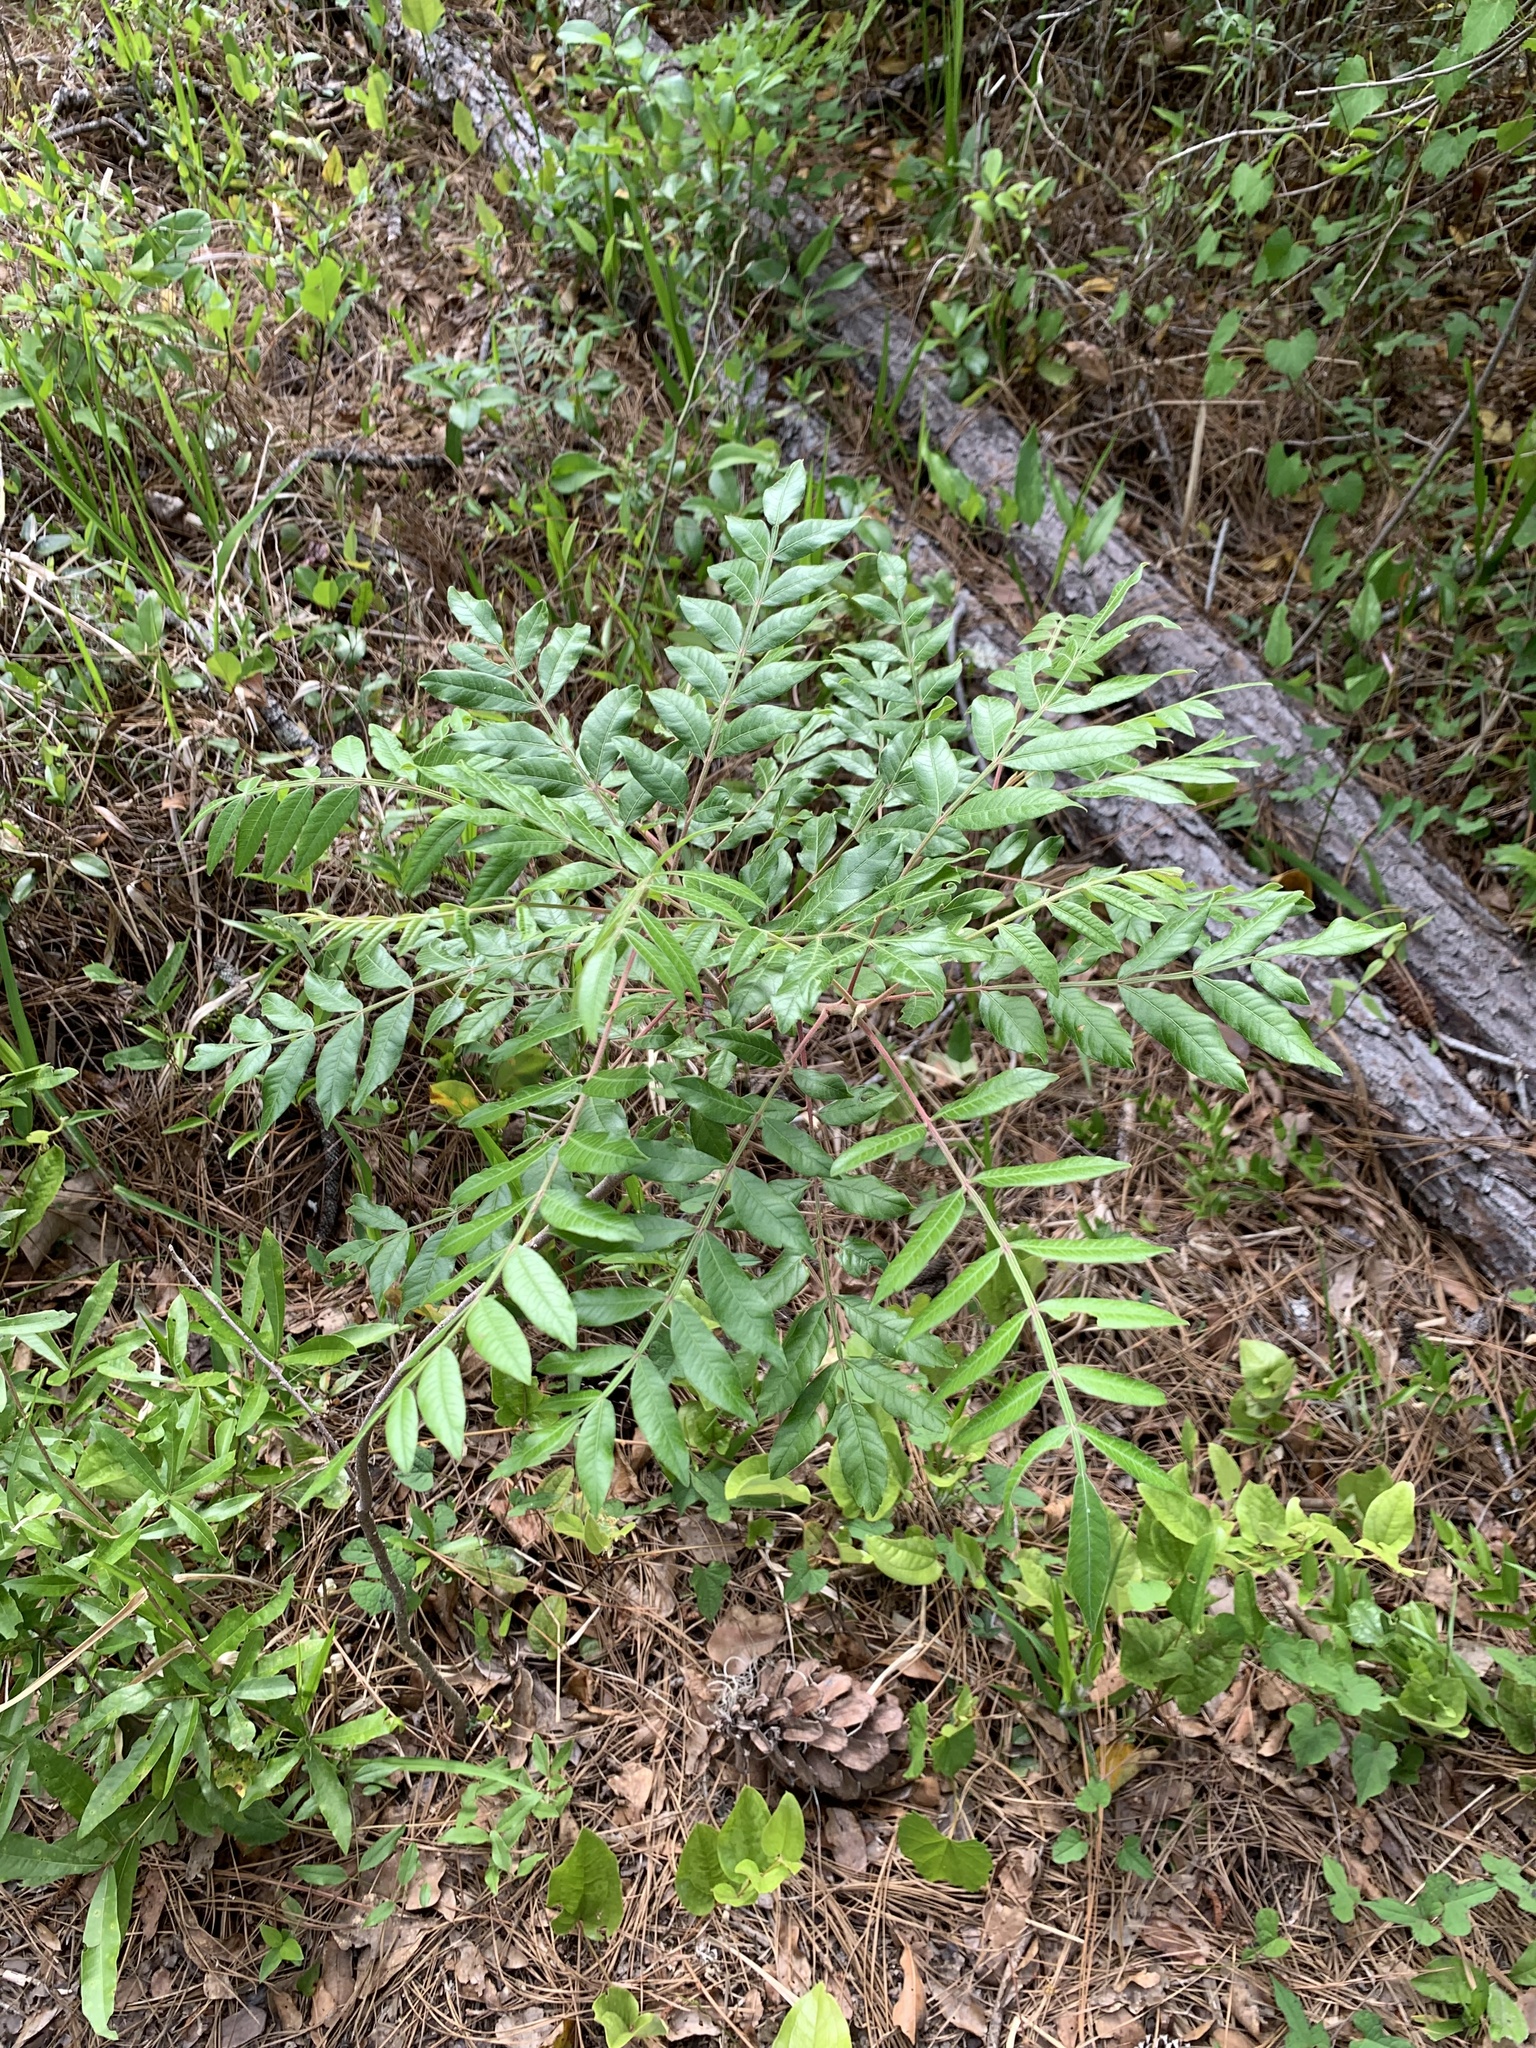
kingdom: Plantae
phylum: Tracheophyta
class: Magnoliopsida
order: Sapindales
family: Anacardiaceae
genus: Rhus
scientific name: Rhus copallina
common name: Shining sumac
